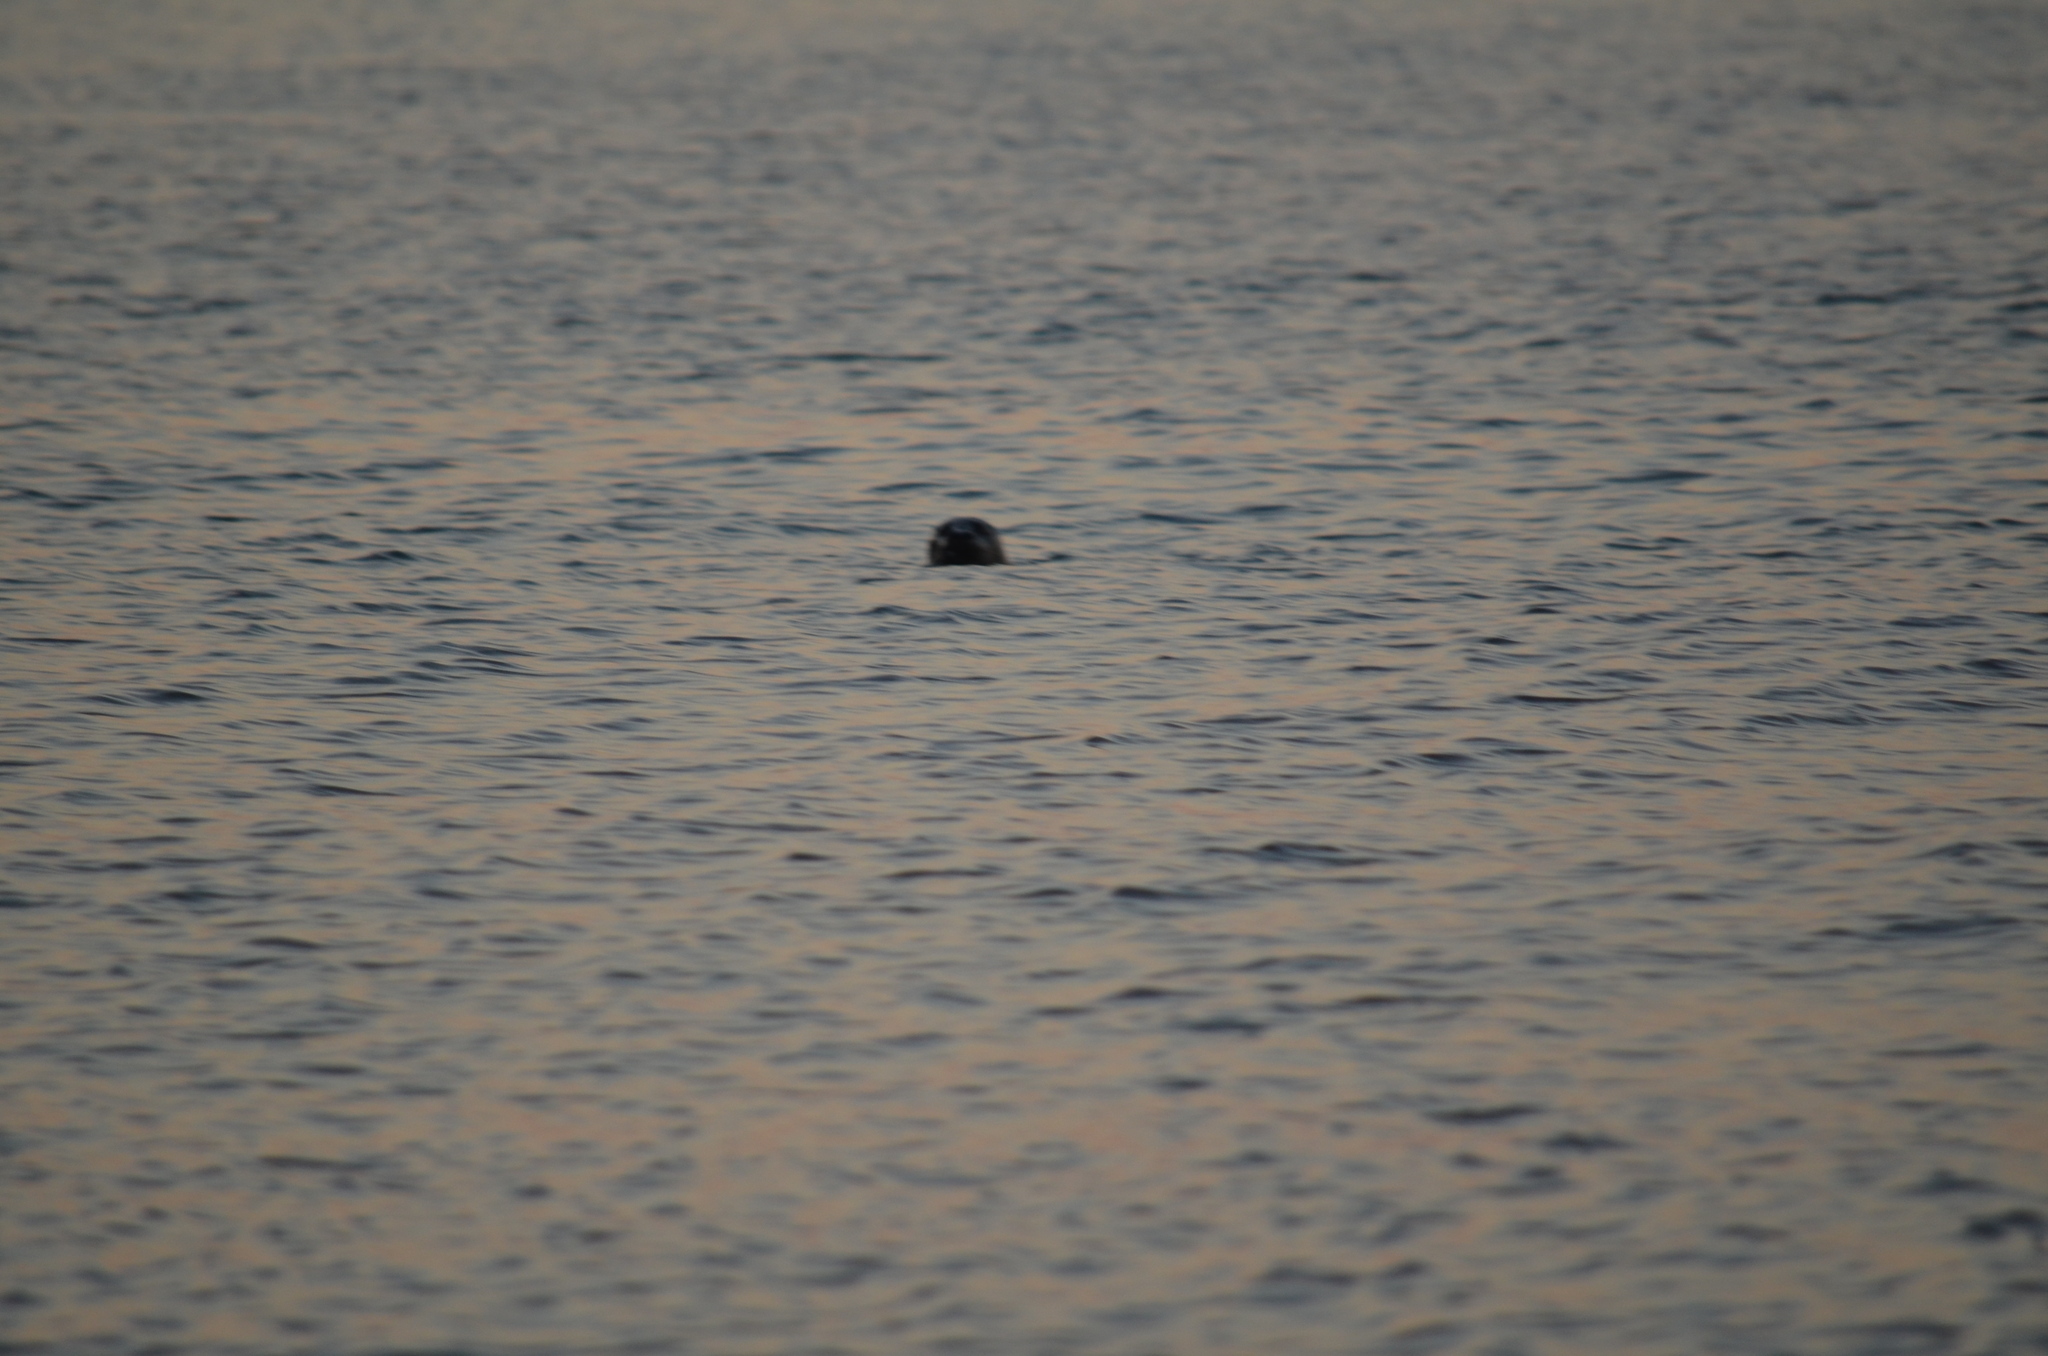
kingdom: Animalia
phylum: Chordata
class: Mammalia
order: Carnivora
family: Phocidae
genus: Phoca
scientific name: Phoca vitulina
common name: Harbor seal
